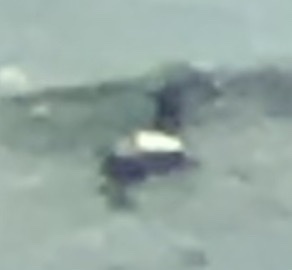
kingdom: Animalia
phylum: Chordata
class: Aves
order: Charadriiformes
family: Alcidae
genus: Cepphus
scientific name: Cepphus columba
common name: Pigeon guillemot
